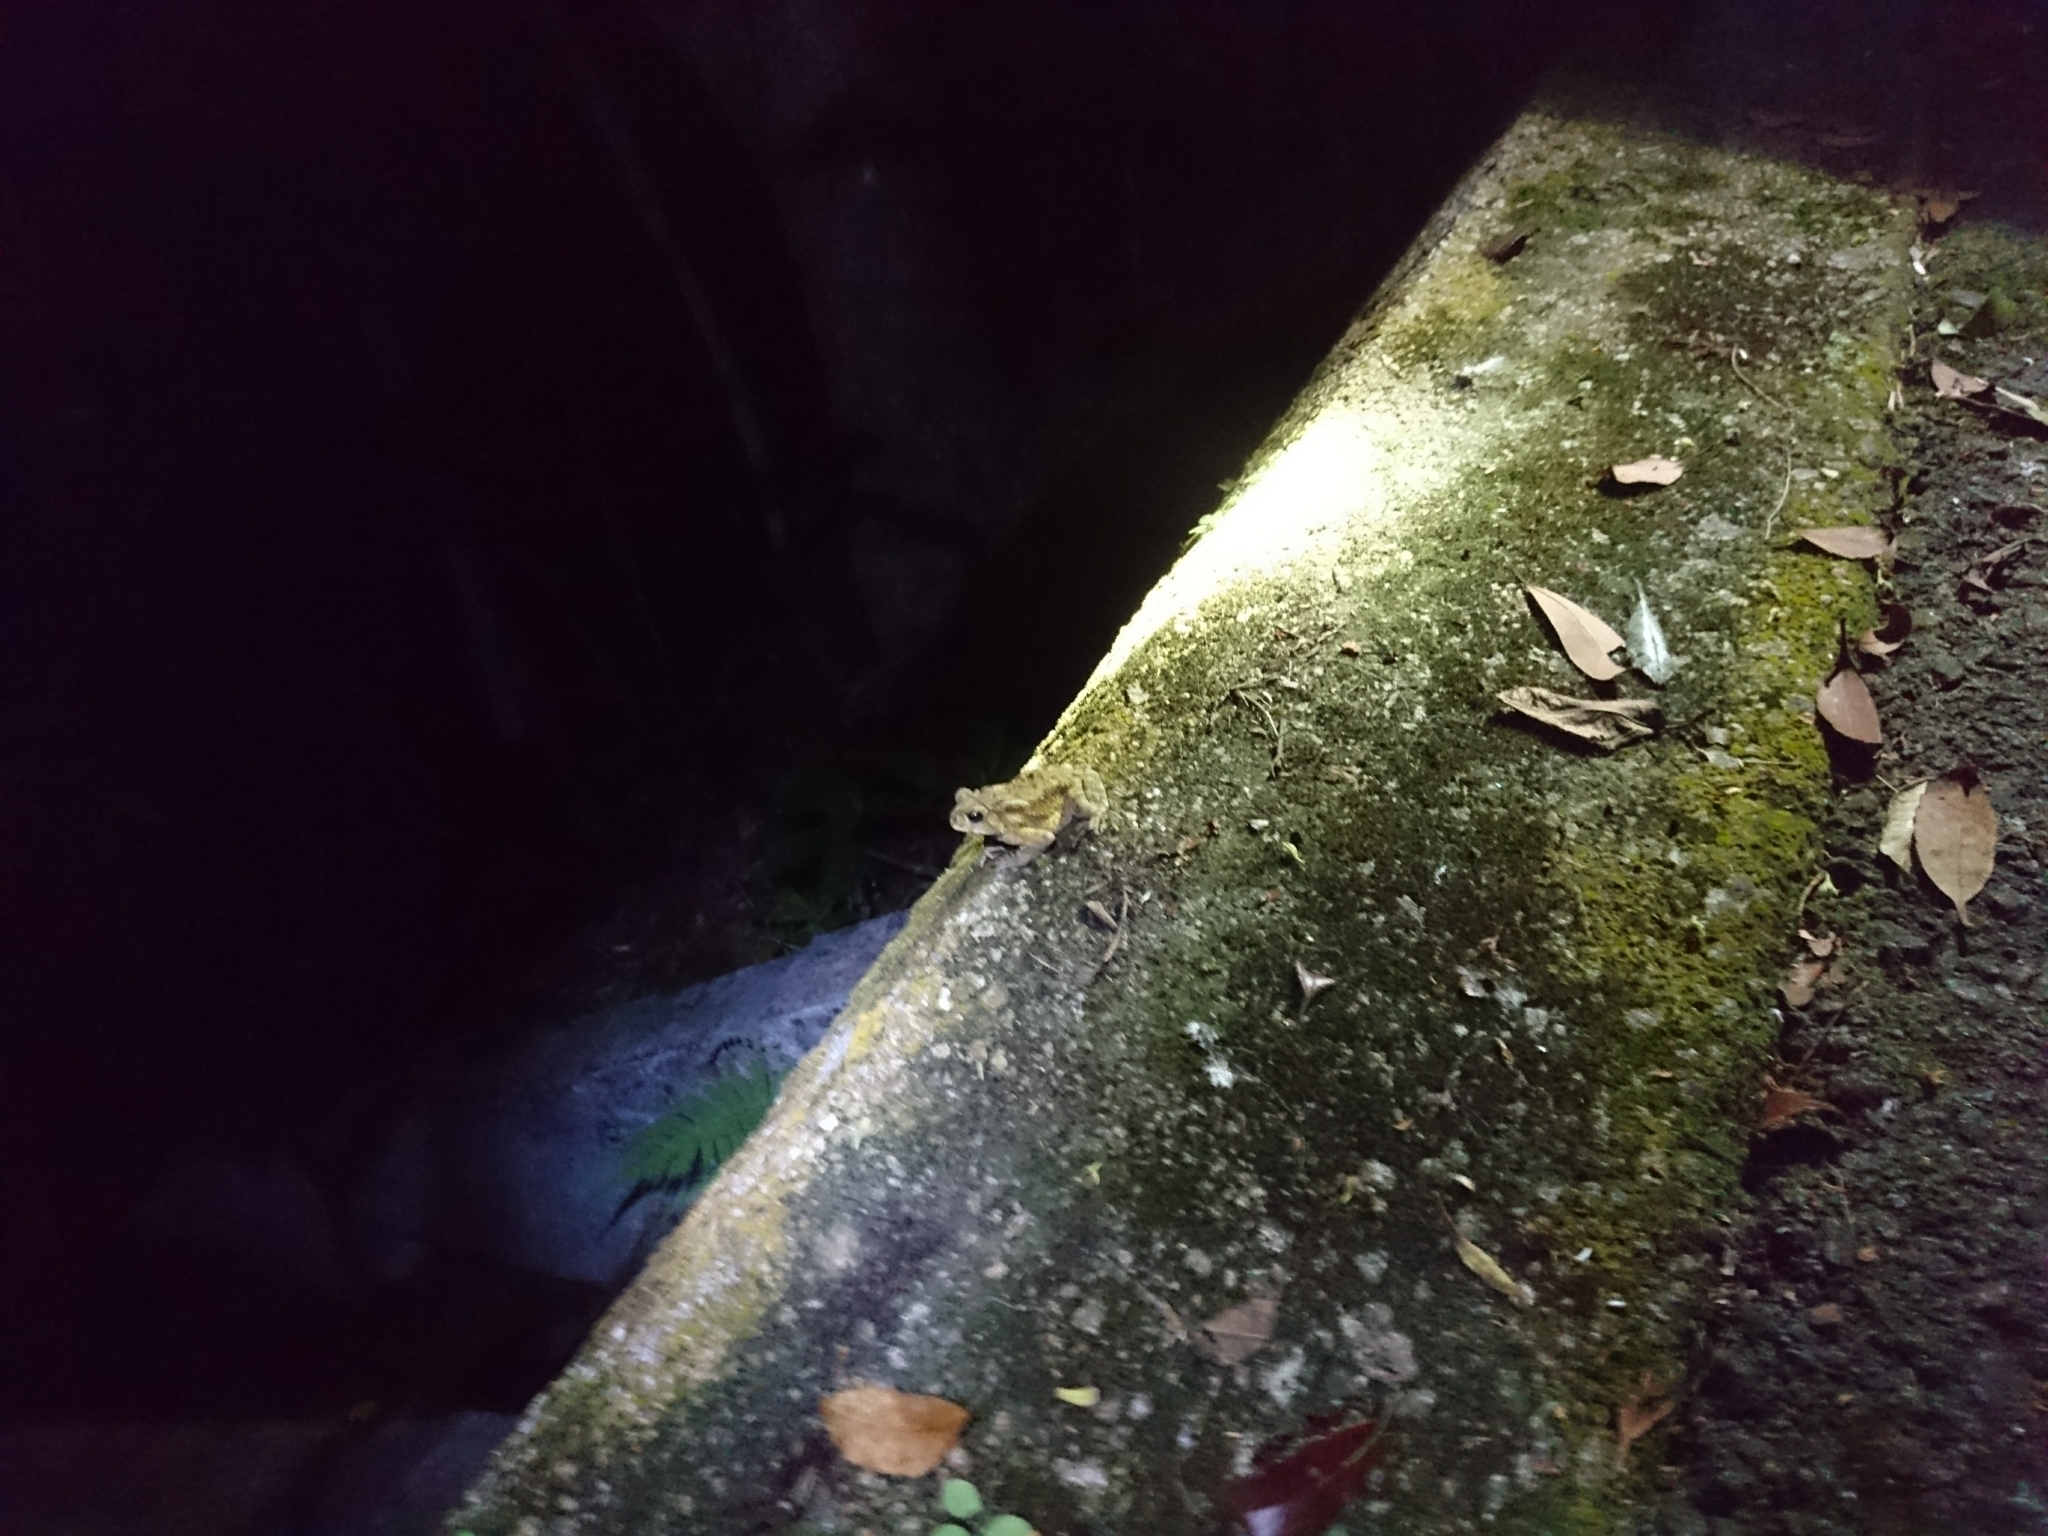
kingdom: Animalia
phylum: Chordata
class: Amphibia
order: Anura
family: Bufonidae
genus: Duttaphrynus
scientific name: Duttaphrynus melanostictus
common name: Common sunda toad
